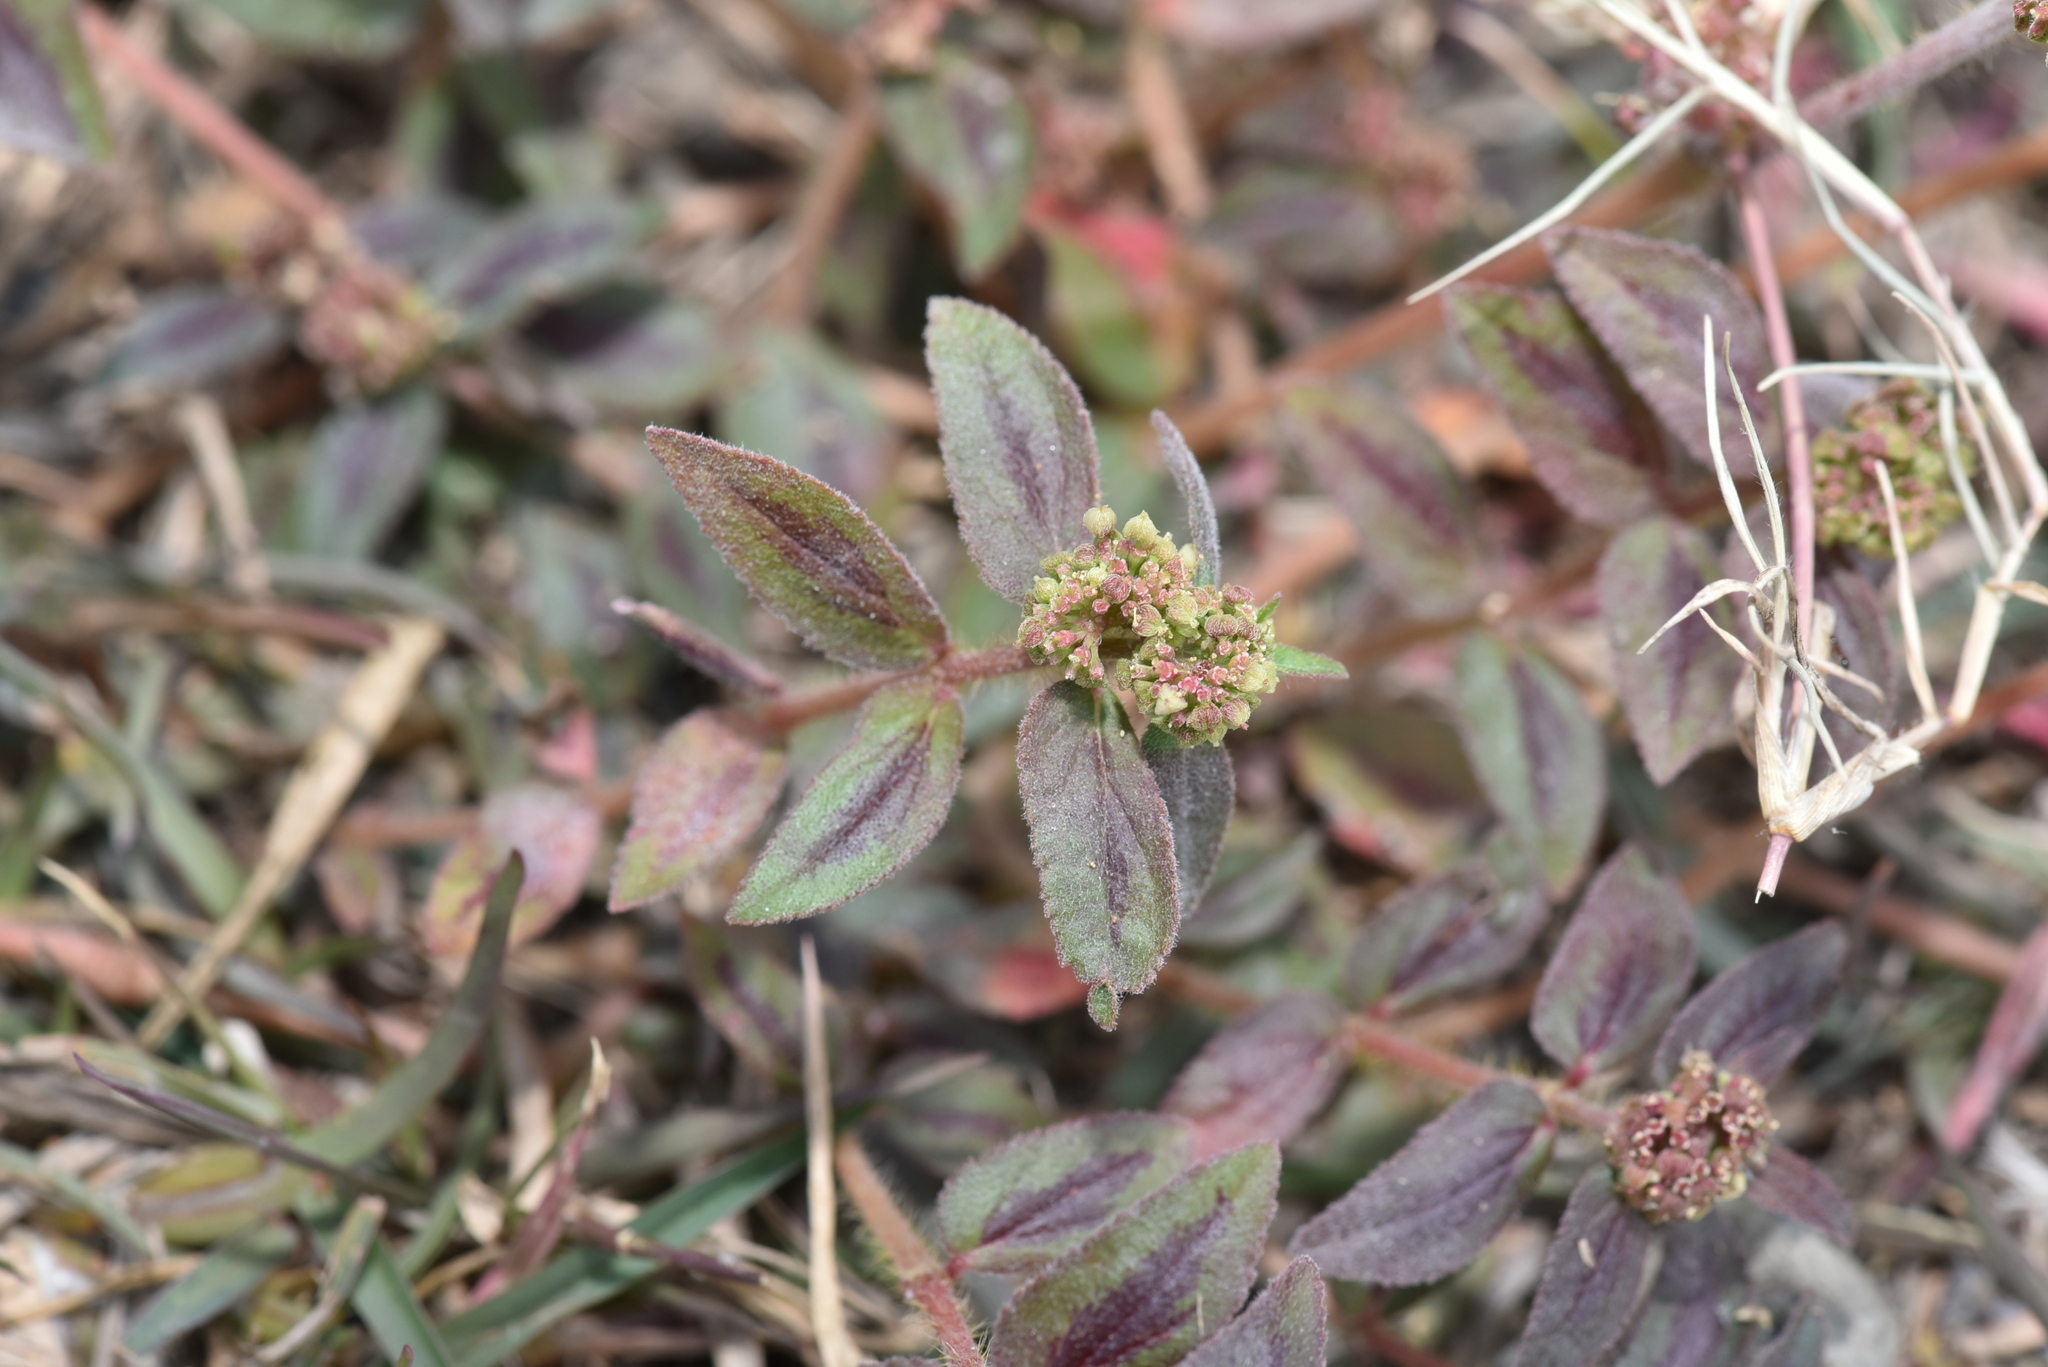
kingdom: Plantae
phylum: Tracheophyta
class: Magnoliopsida
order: Malpighiales
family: Euphorbiaceae
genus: Euphorbia
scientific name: Euphorbia hirta
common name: Pillpod sandmat
